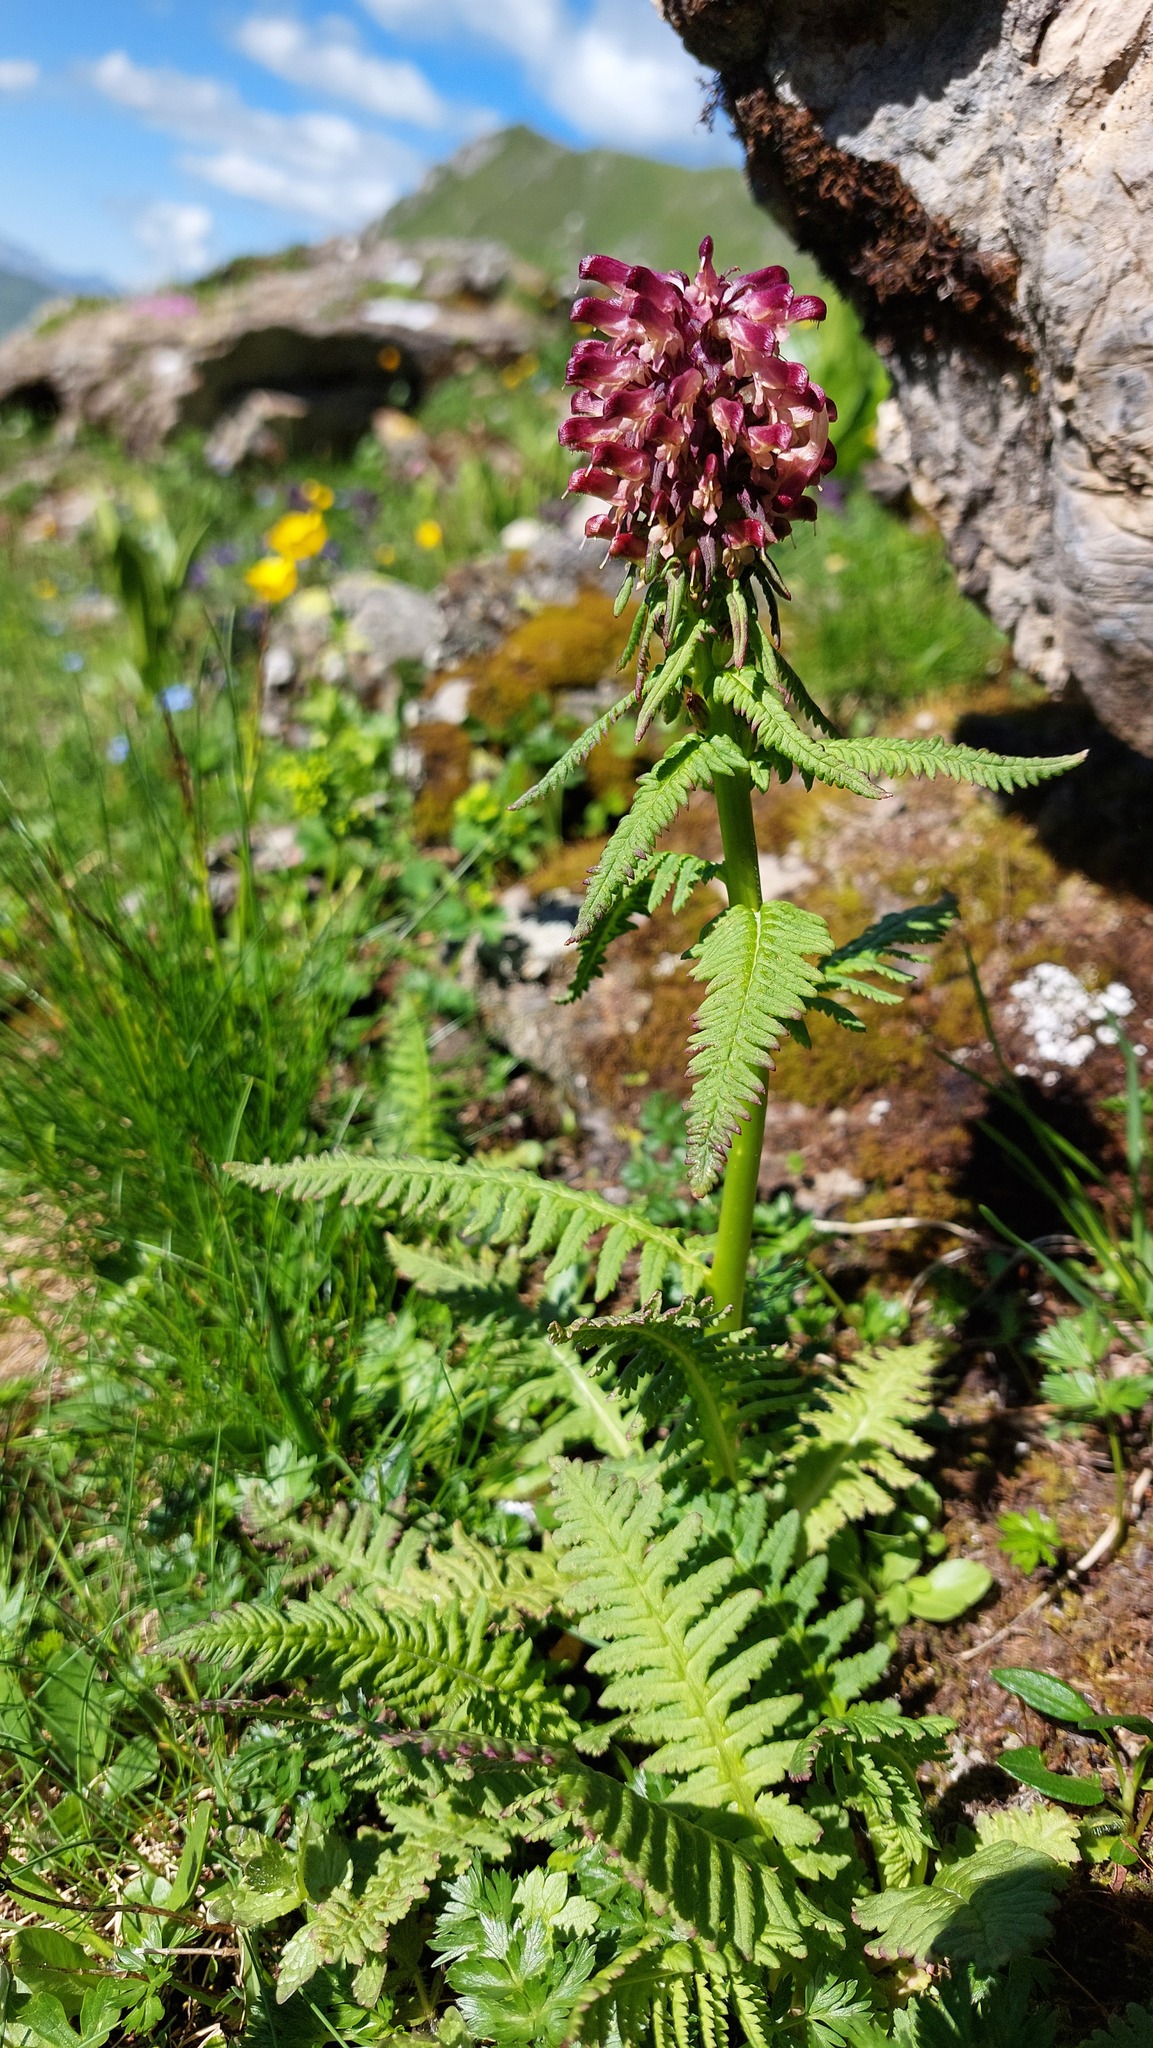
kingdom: Plantae
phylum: Tracheophyta
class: Magnoliopsida
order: Lamiales
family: Orobanchaceae
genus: Pedicularis
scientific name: Pedicularis recutita
